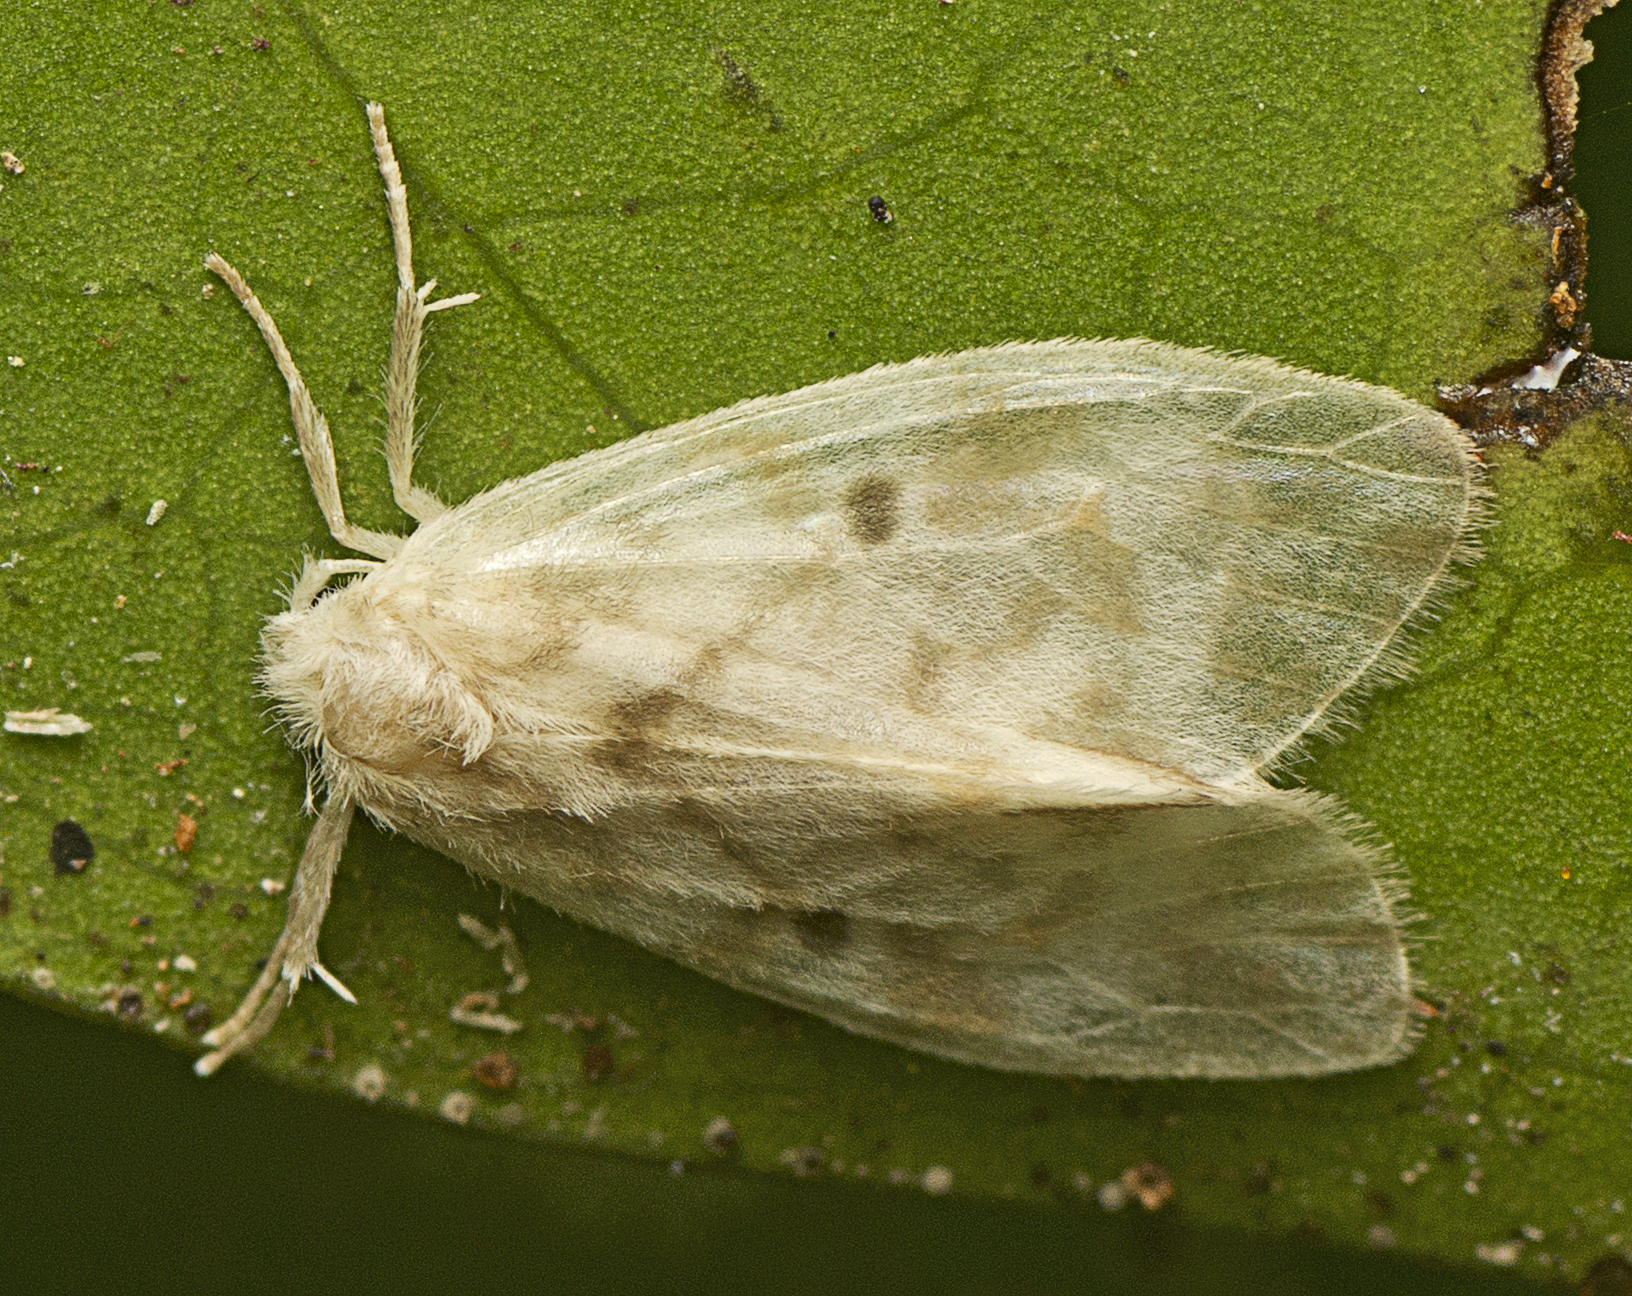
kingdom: Animalia
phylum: Arthropoda
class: Insecta
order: Lepidoptera
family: Erebidae
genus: Schistophleps
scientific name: Schistophleps albida
